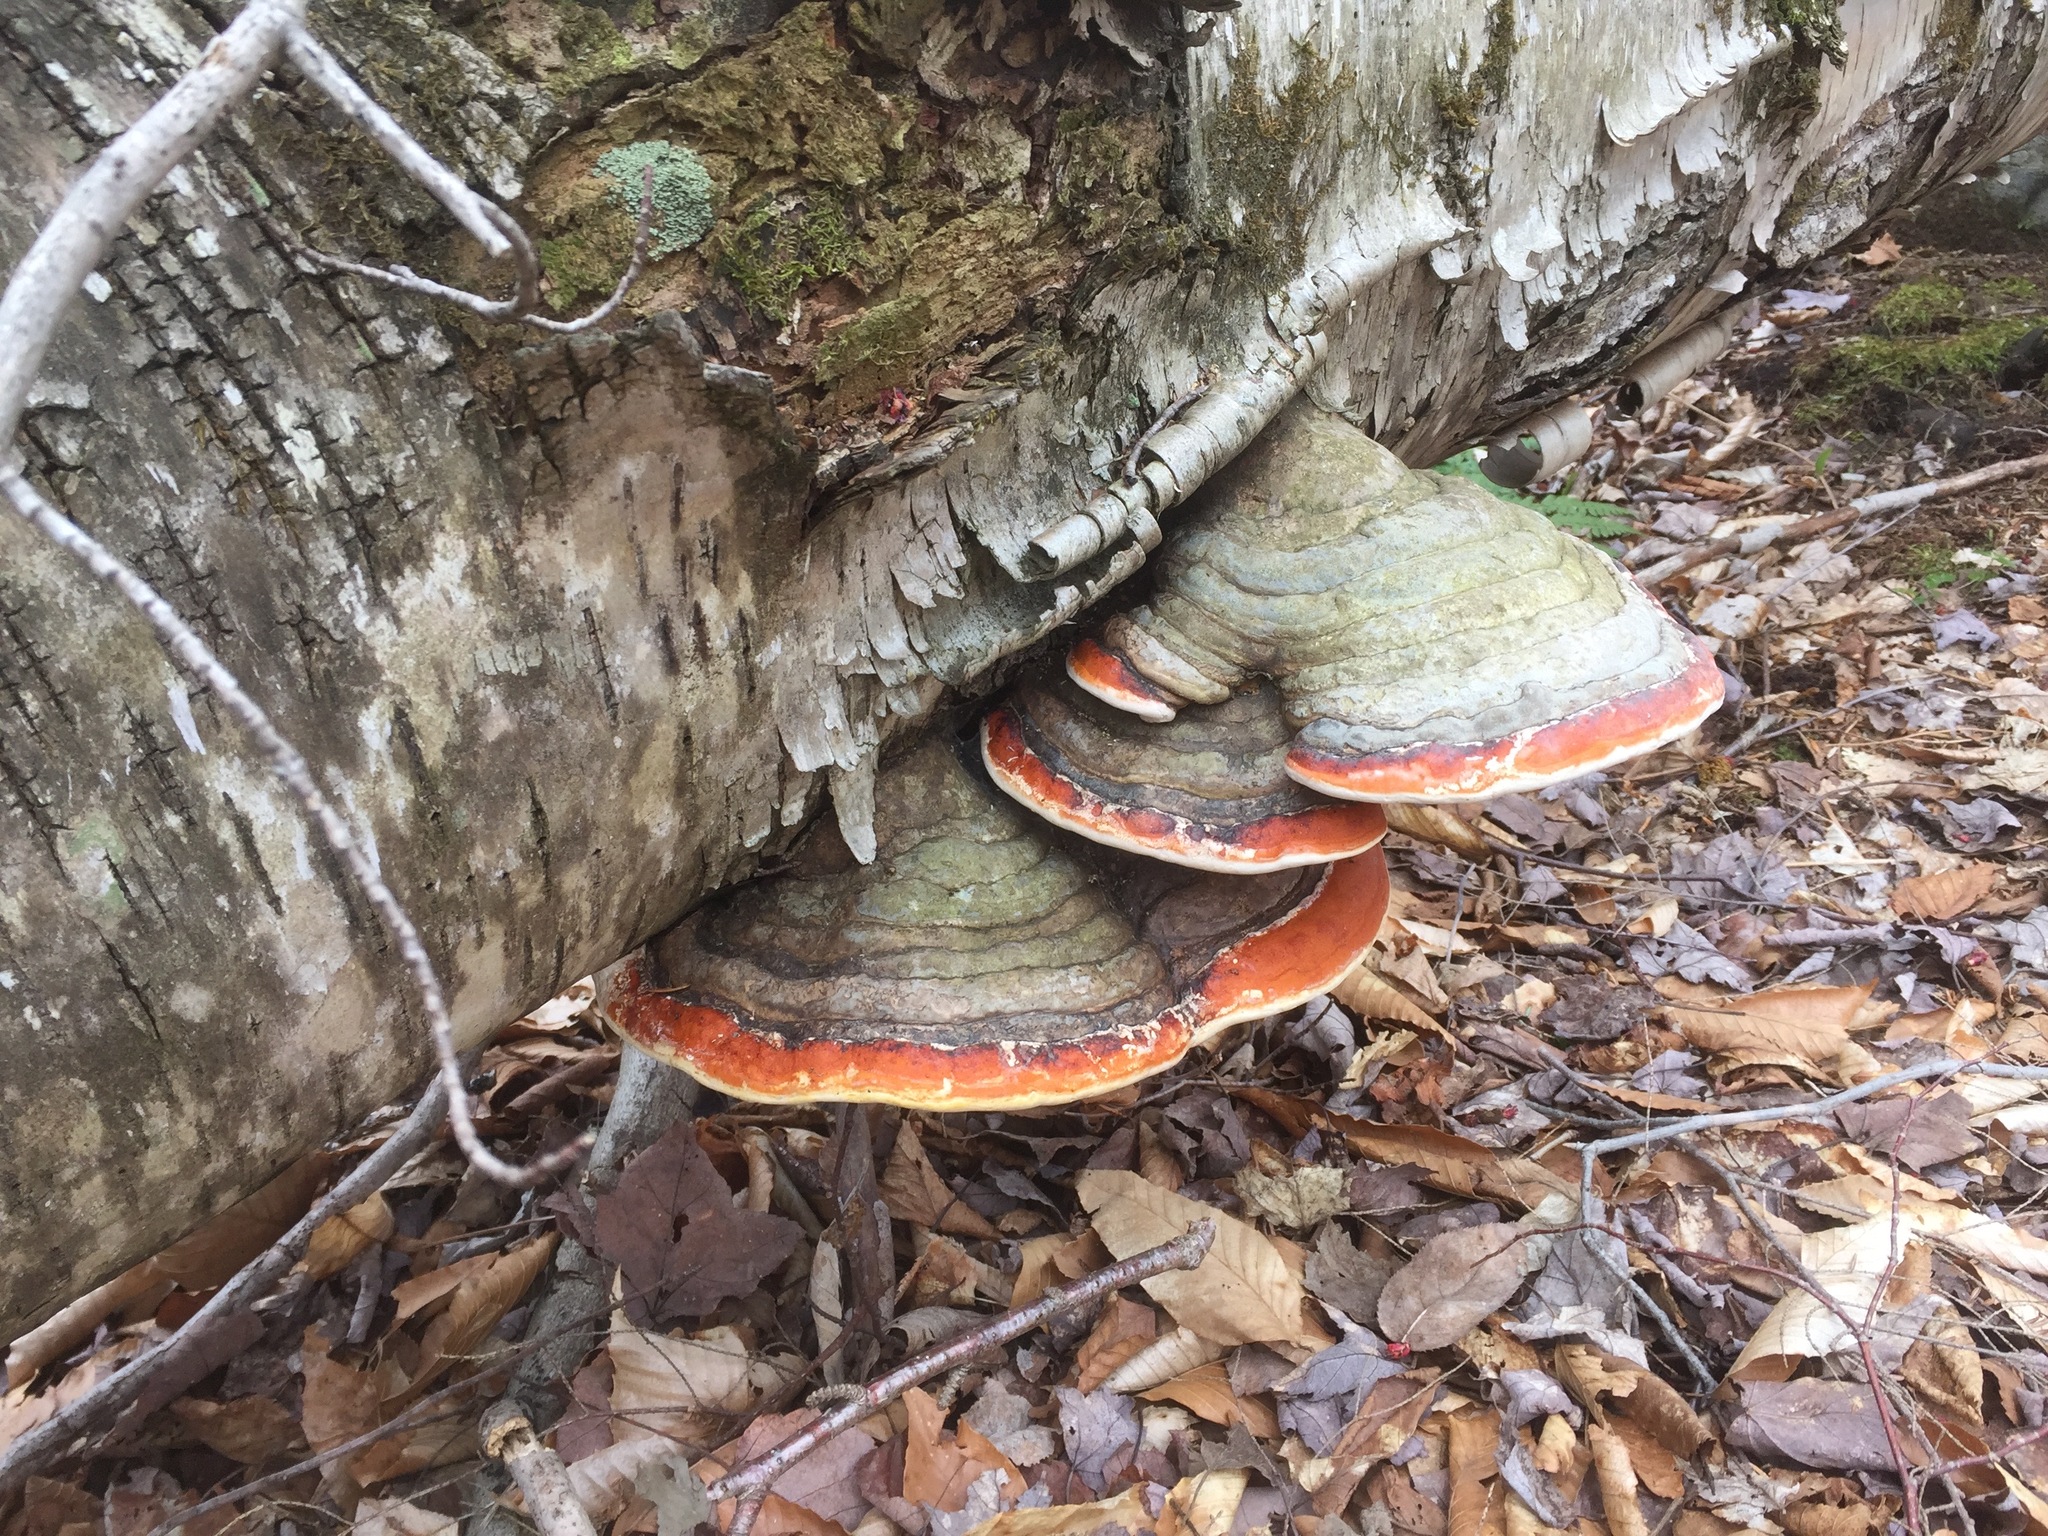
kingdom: Fungi
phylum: Basidiomycota
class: Agaricomycetes
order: Polyporales
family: Fomitopsidaceae
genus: Fomitopsis
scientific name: Fomitopsis mounceae
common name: Northern red belt
